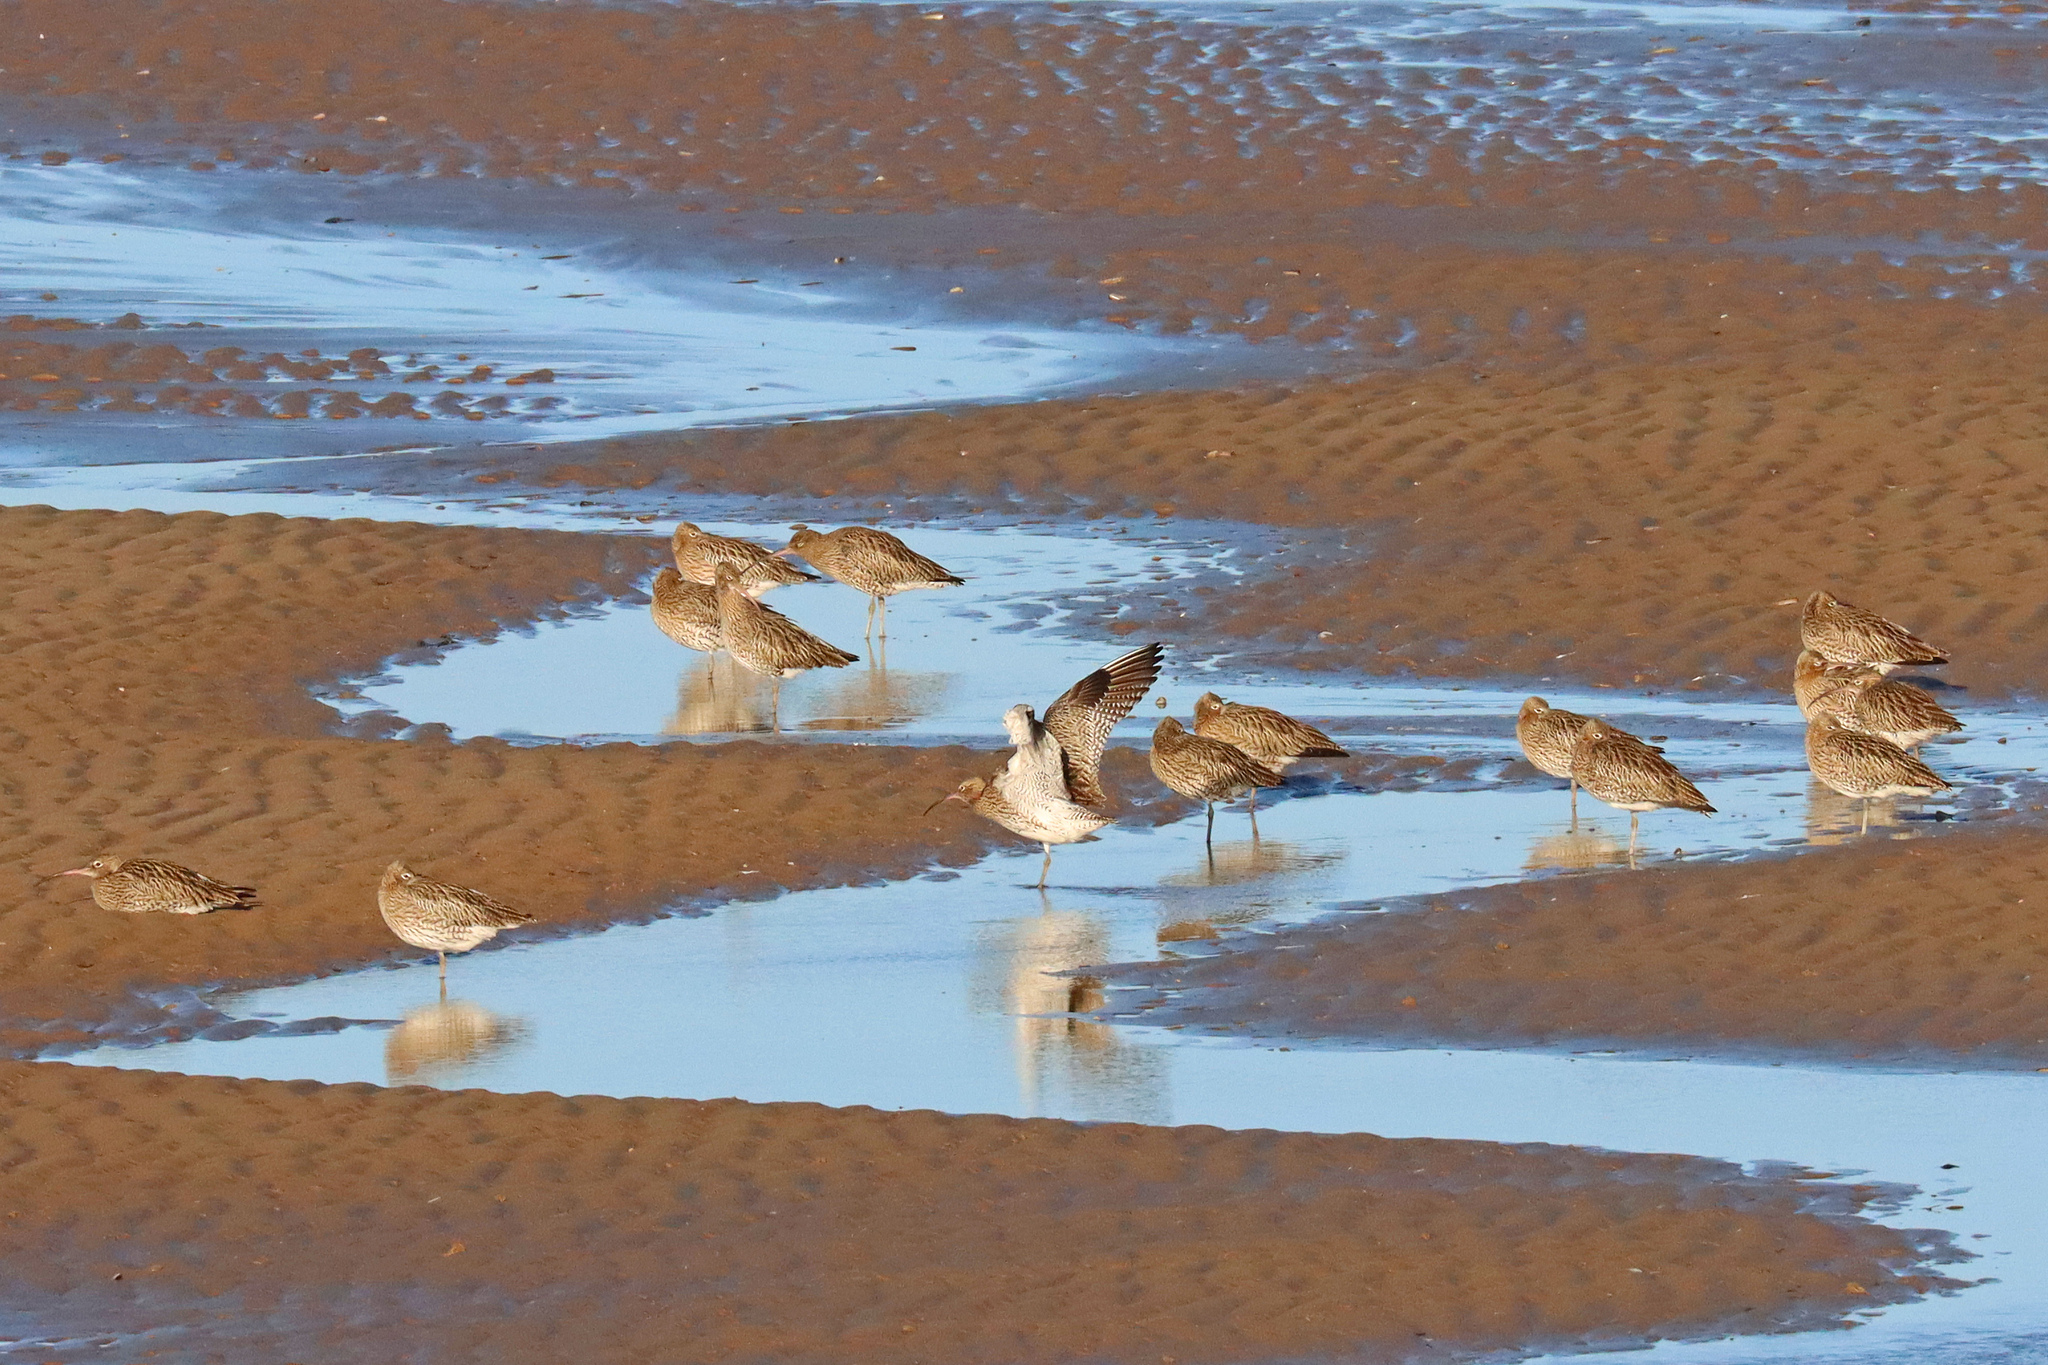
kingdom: Animalia
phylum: Chordata
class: Aves
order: Charadriiformes
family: Scolopacidae
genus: Numenius
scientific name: Numenius arquata
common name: Eurasian curlew
